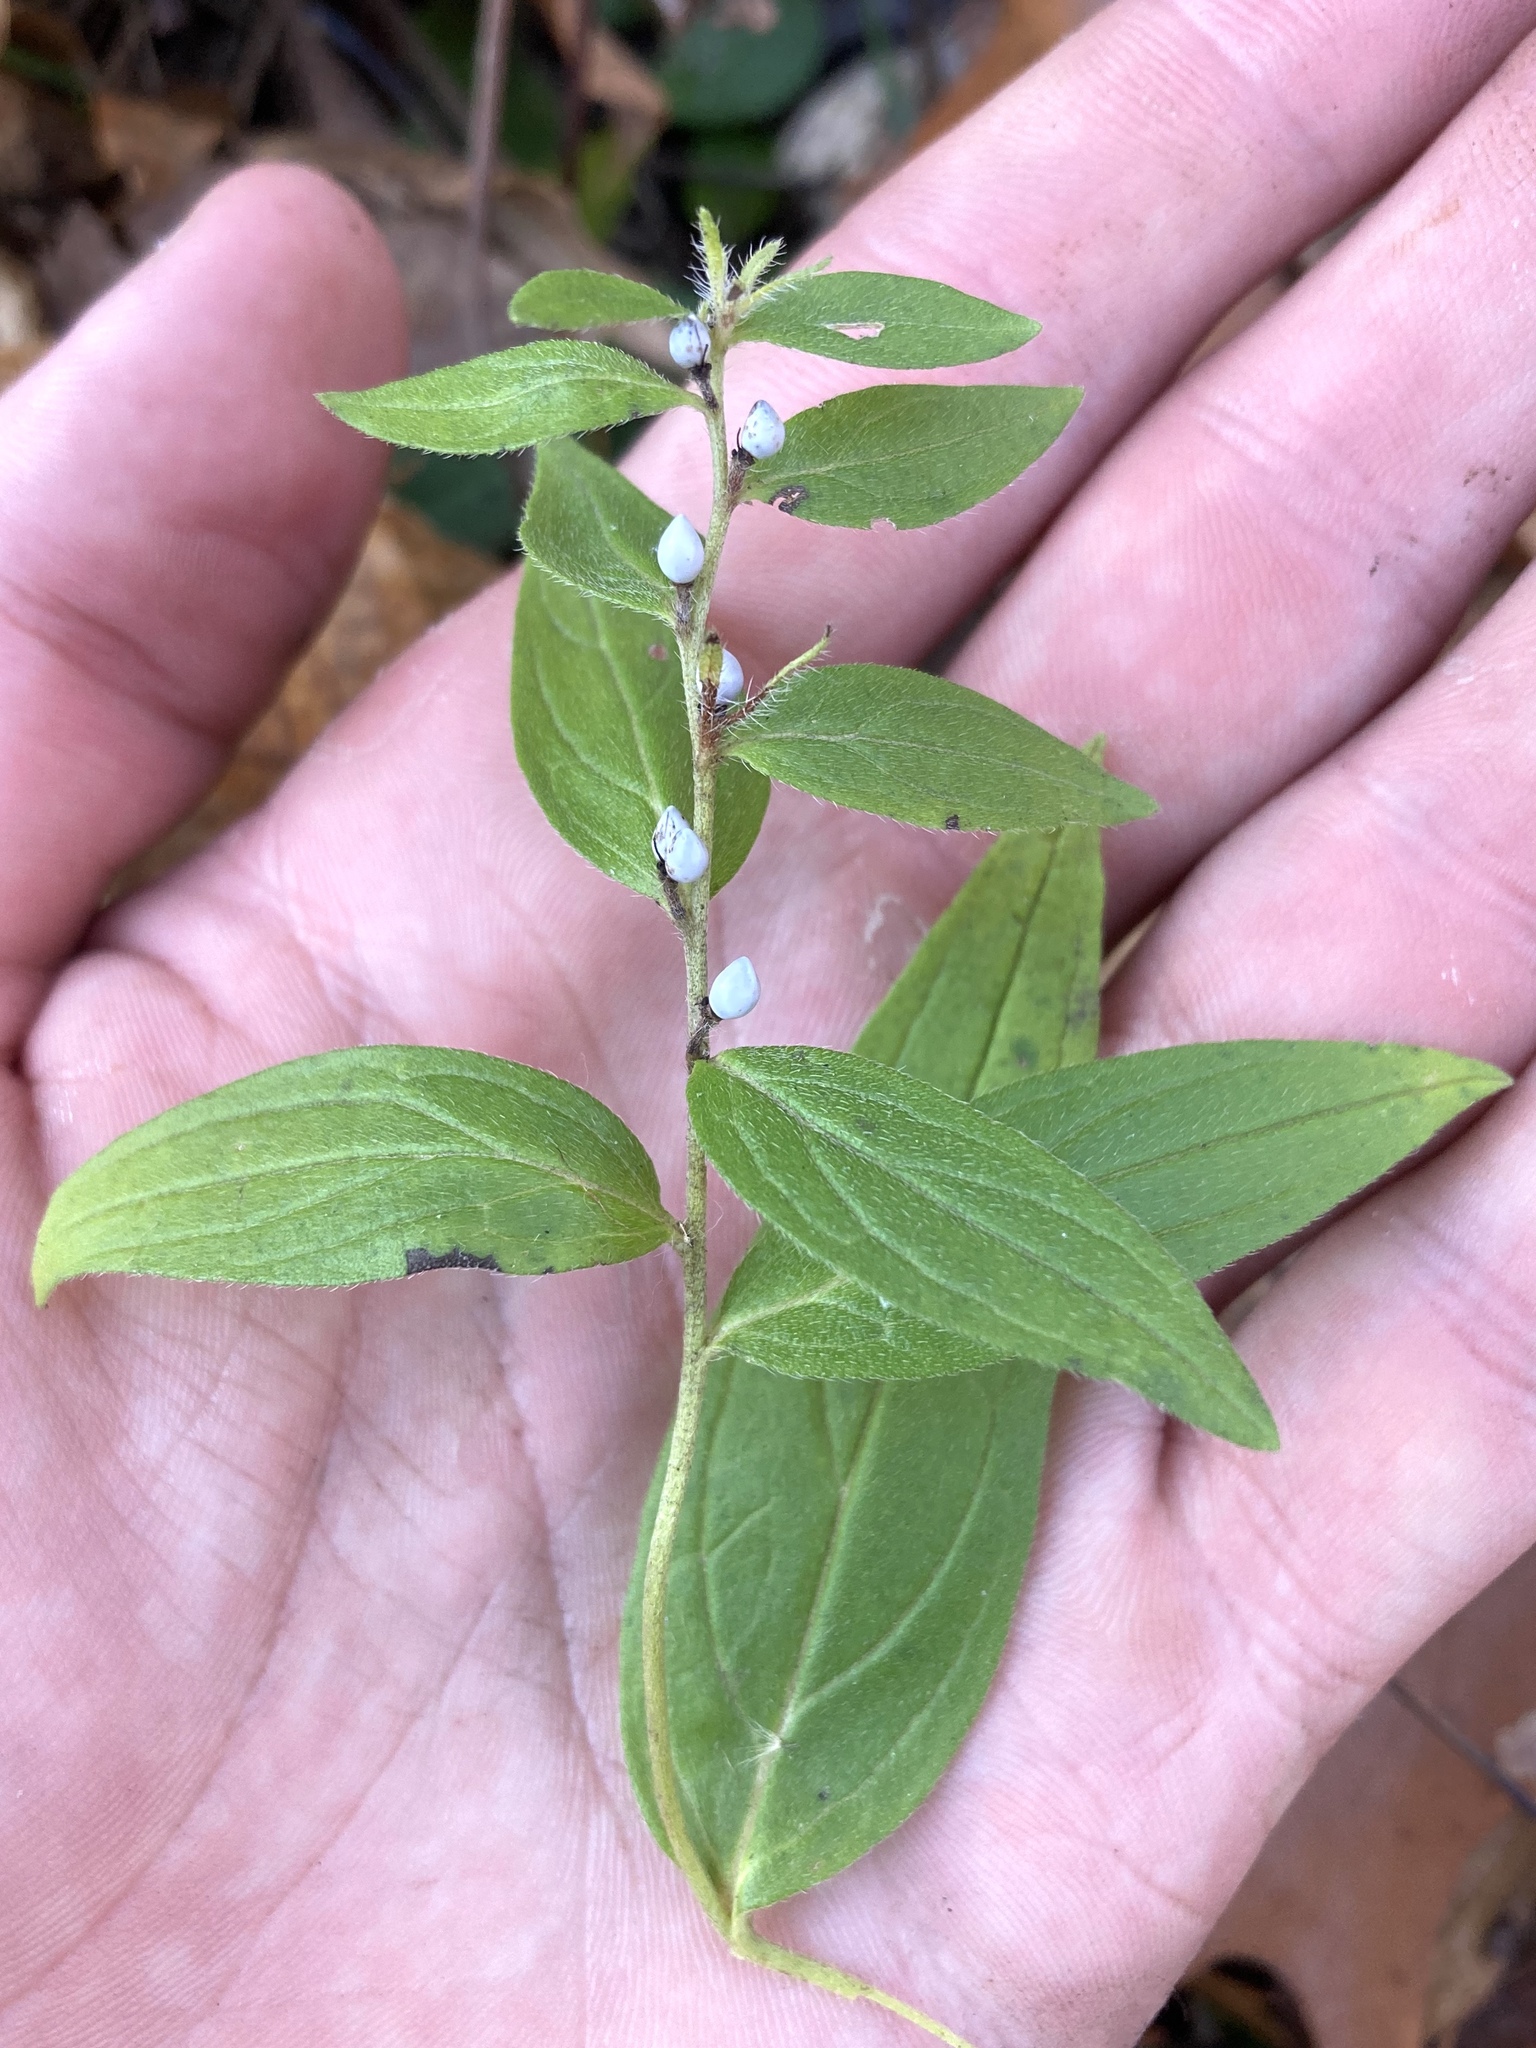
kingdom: Plantae
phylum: Tracheophyta
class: Magnoliopsida
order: Boraginales
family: Boraginaceae
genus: Lithospermum
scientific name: Lithospermum officinale
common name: Common gromwell
